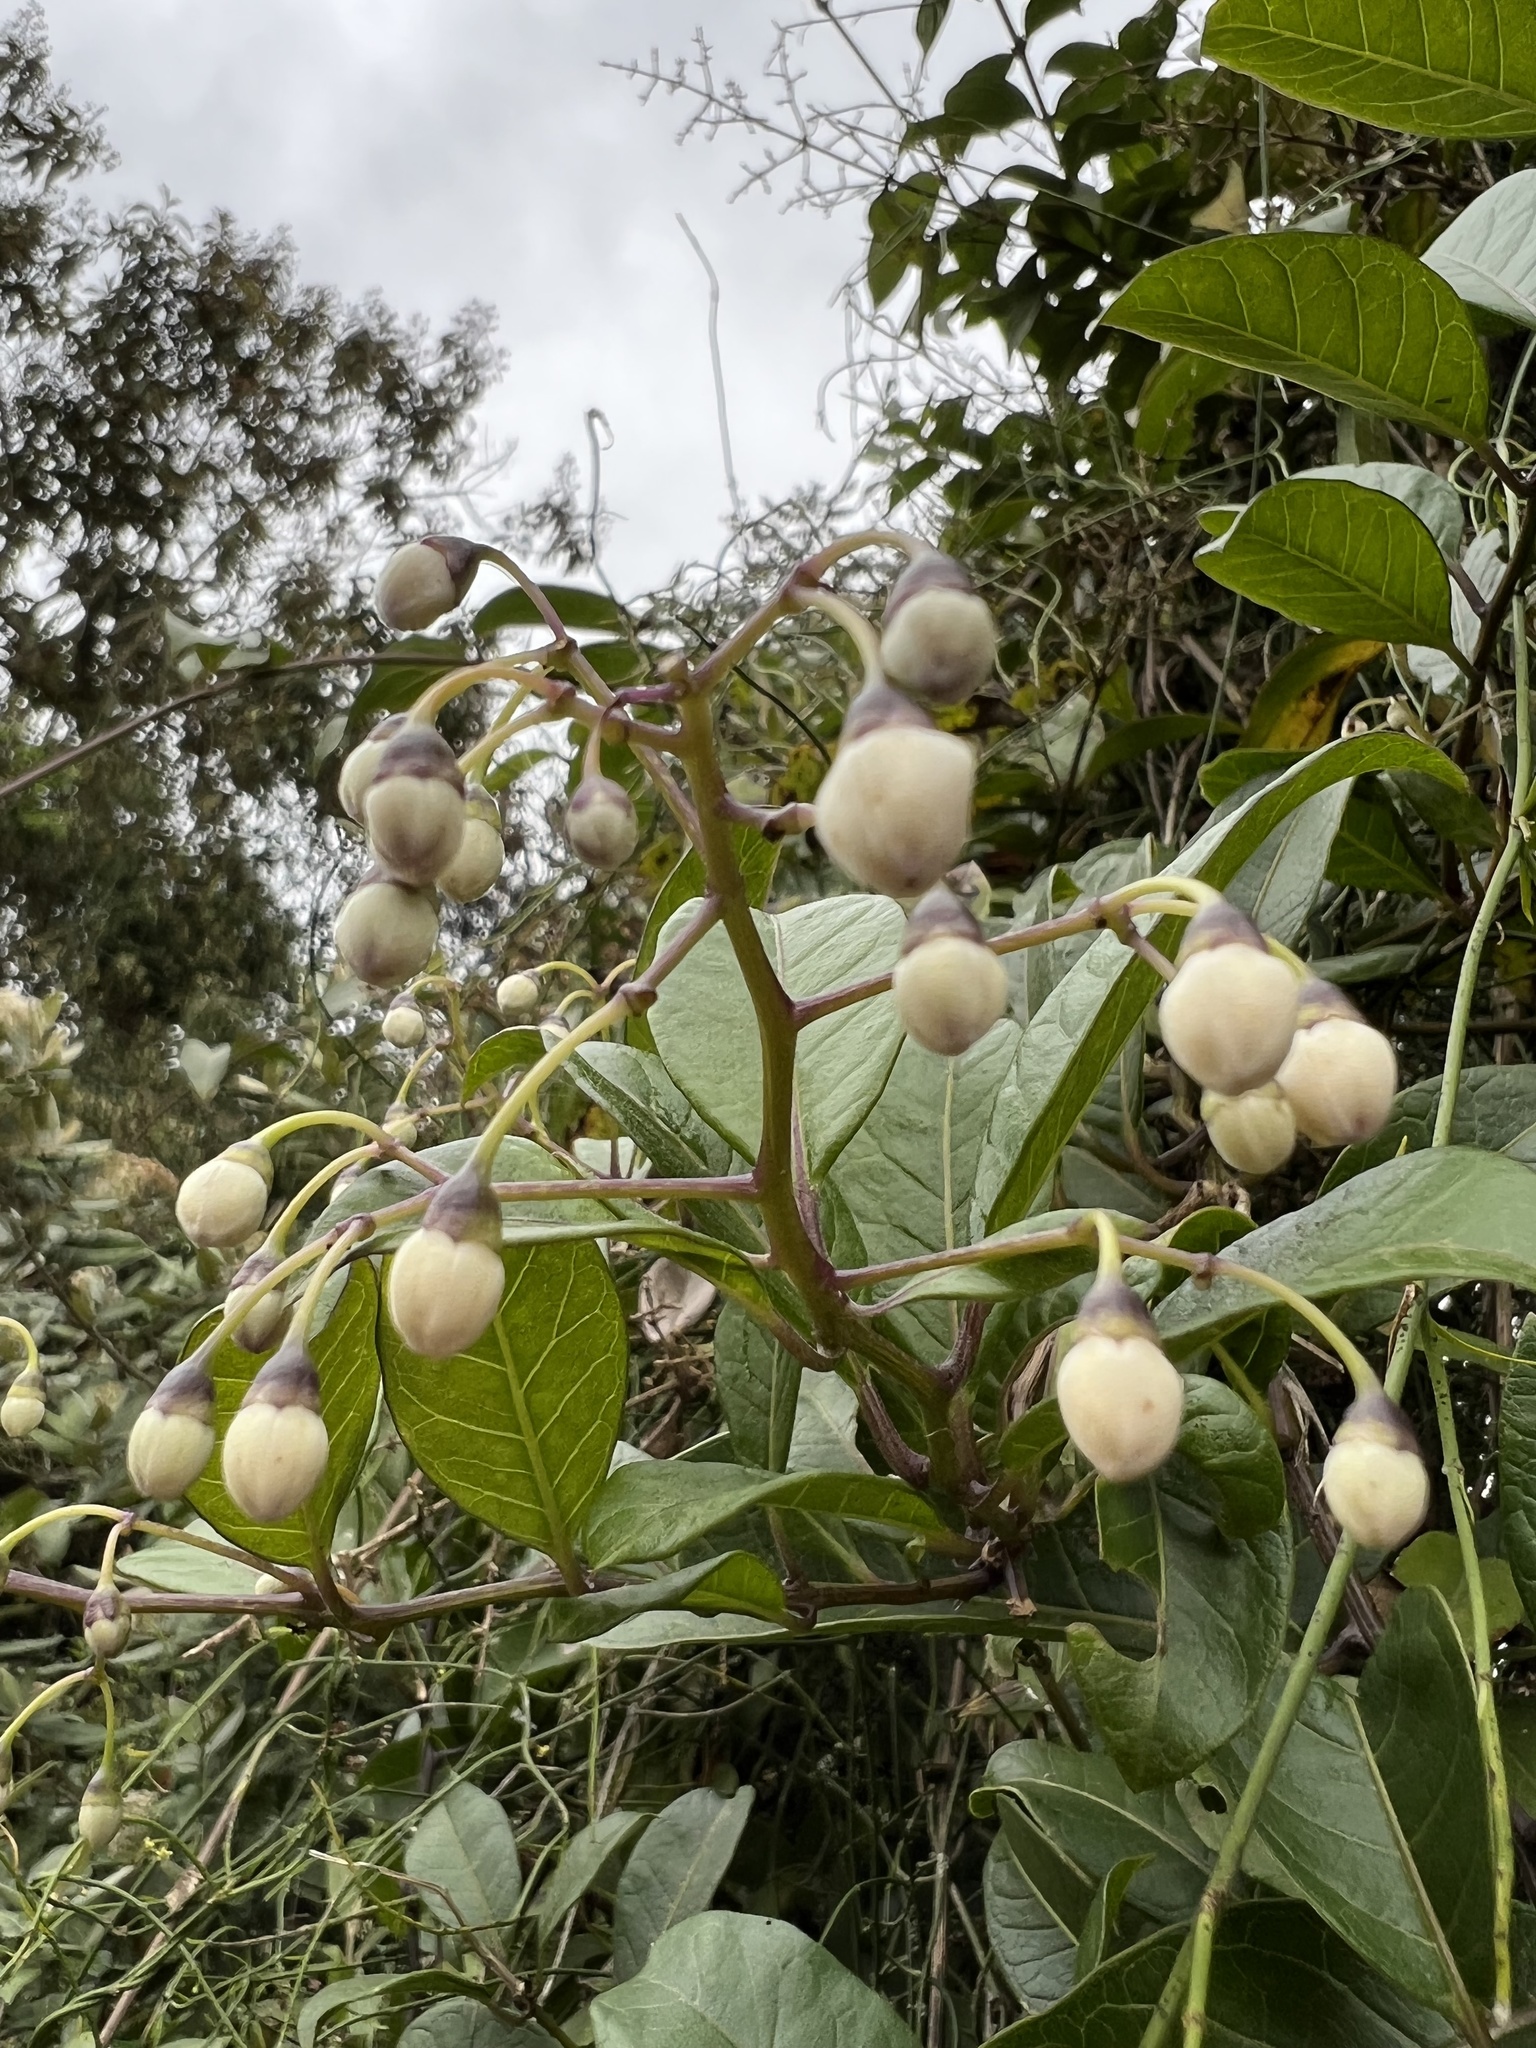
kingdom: Plantae
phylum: Tracheophyta
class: Magnoliopsida
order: Solanales
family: Solanaceae
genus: Solanum
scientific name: Solanum luculentum
